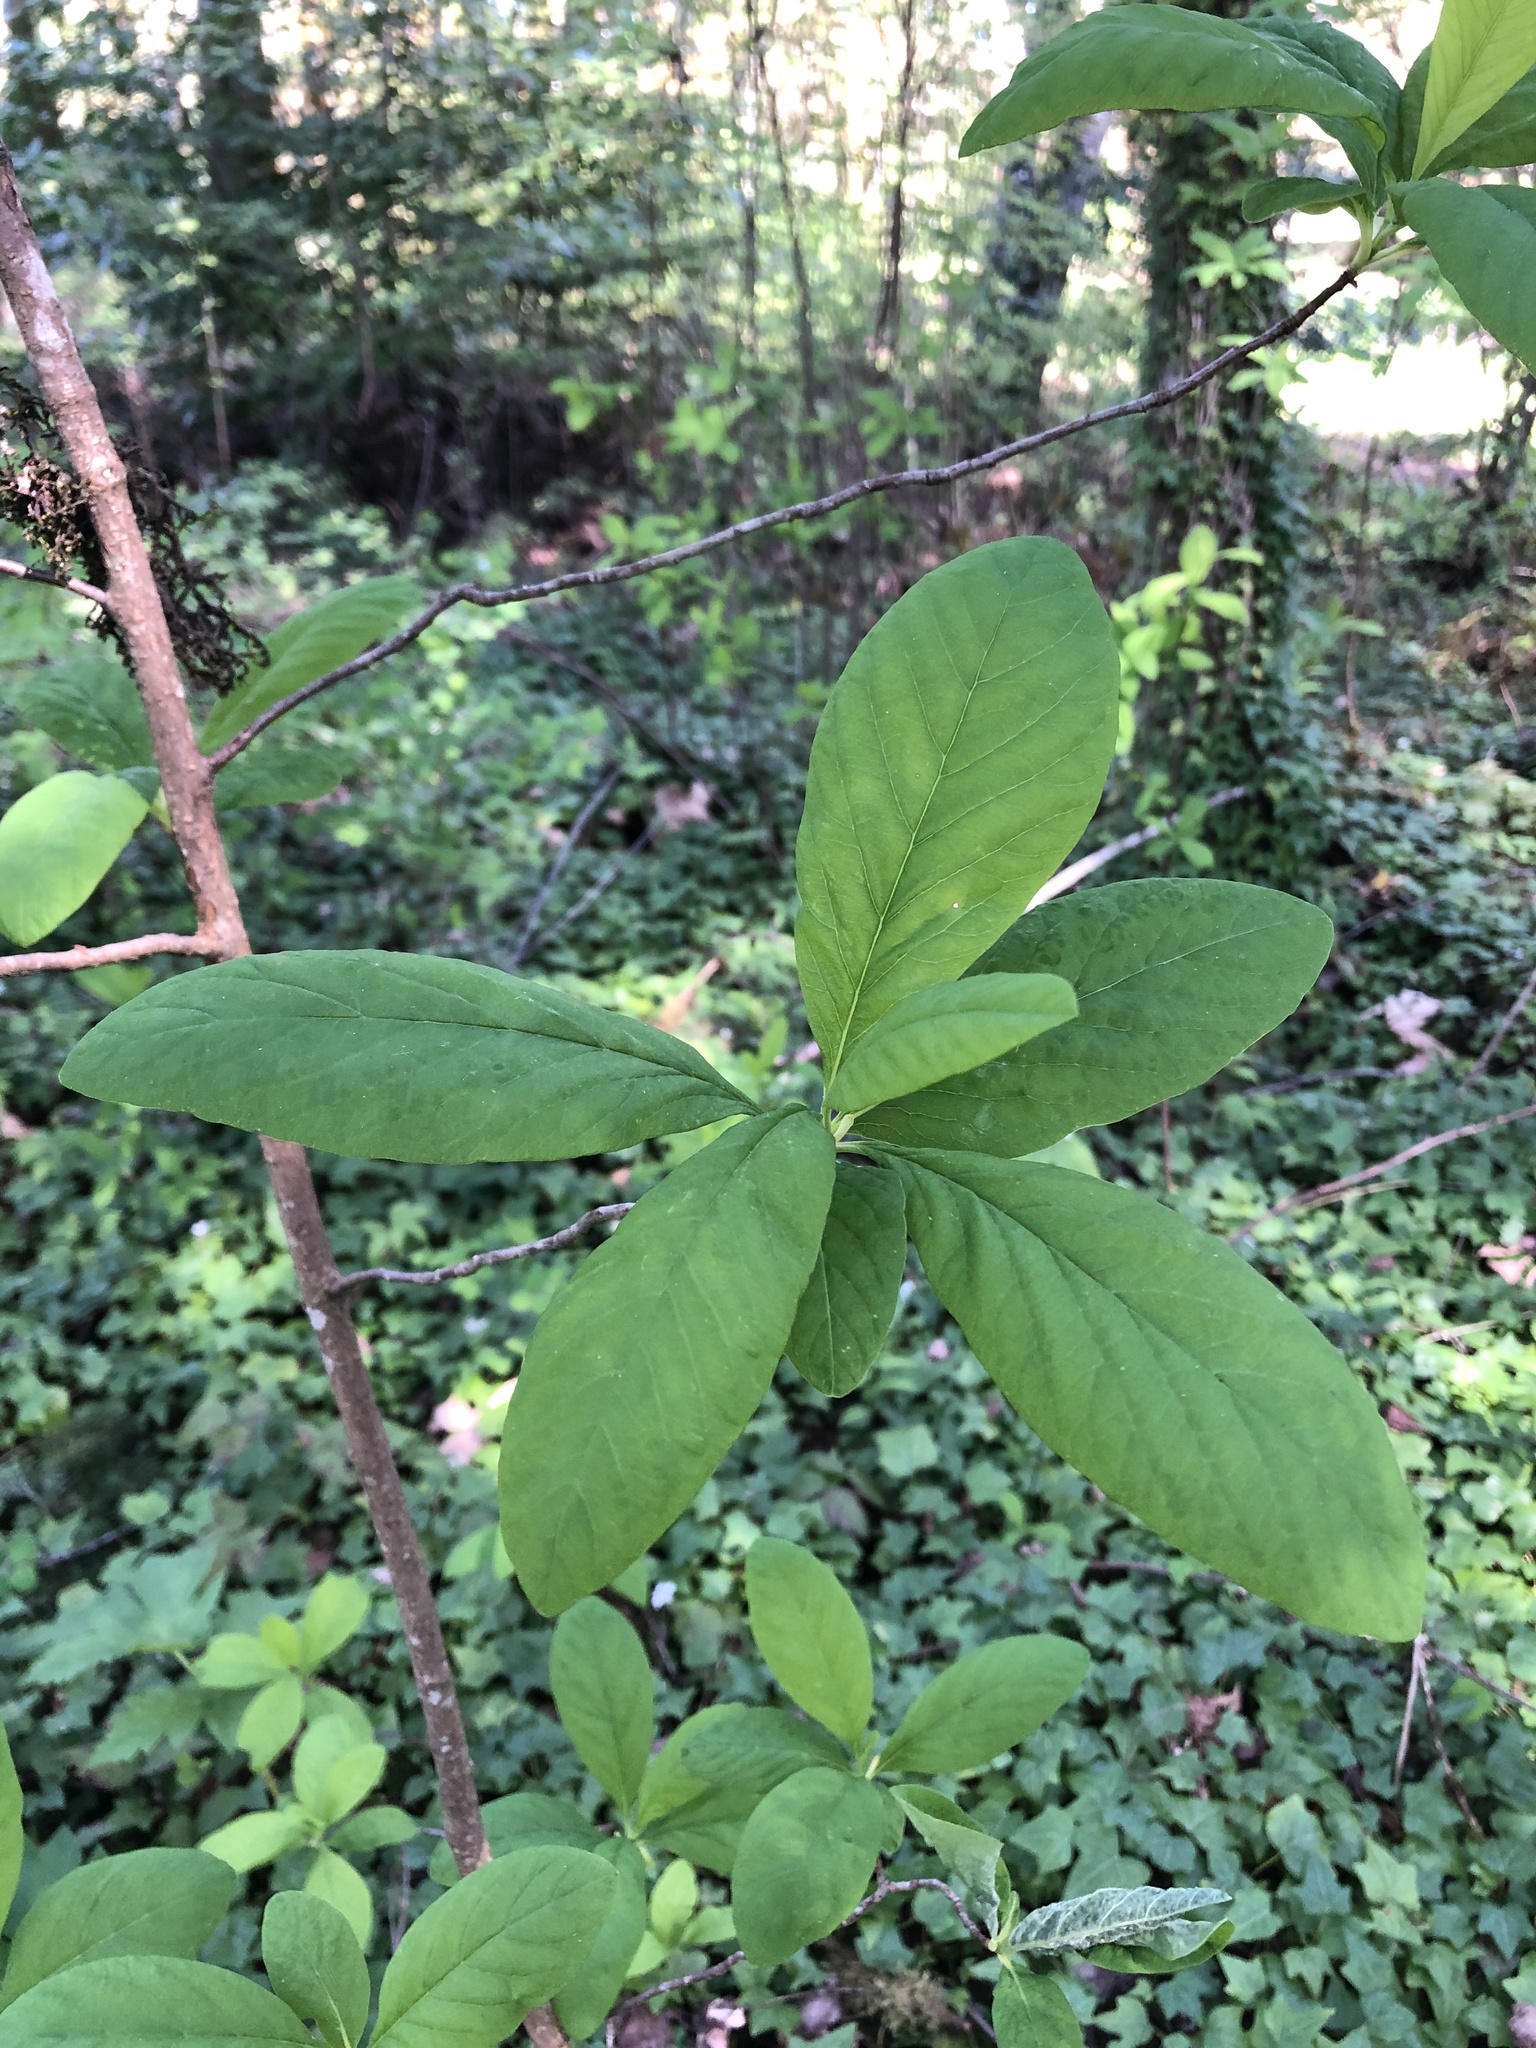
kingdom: Plantae
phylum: Tracheophyta
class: Magnoliopsida
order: Rosales
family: Rosaceae
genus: Oemleria
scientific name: Oemleria cerasiformis
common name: Osoberry
